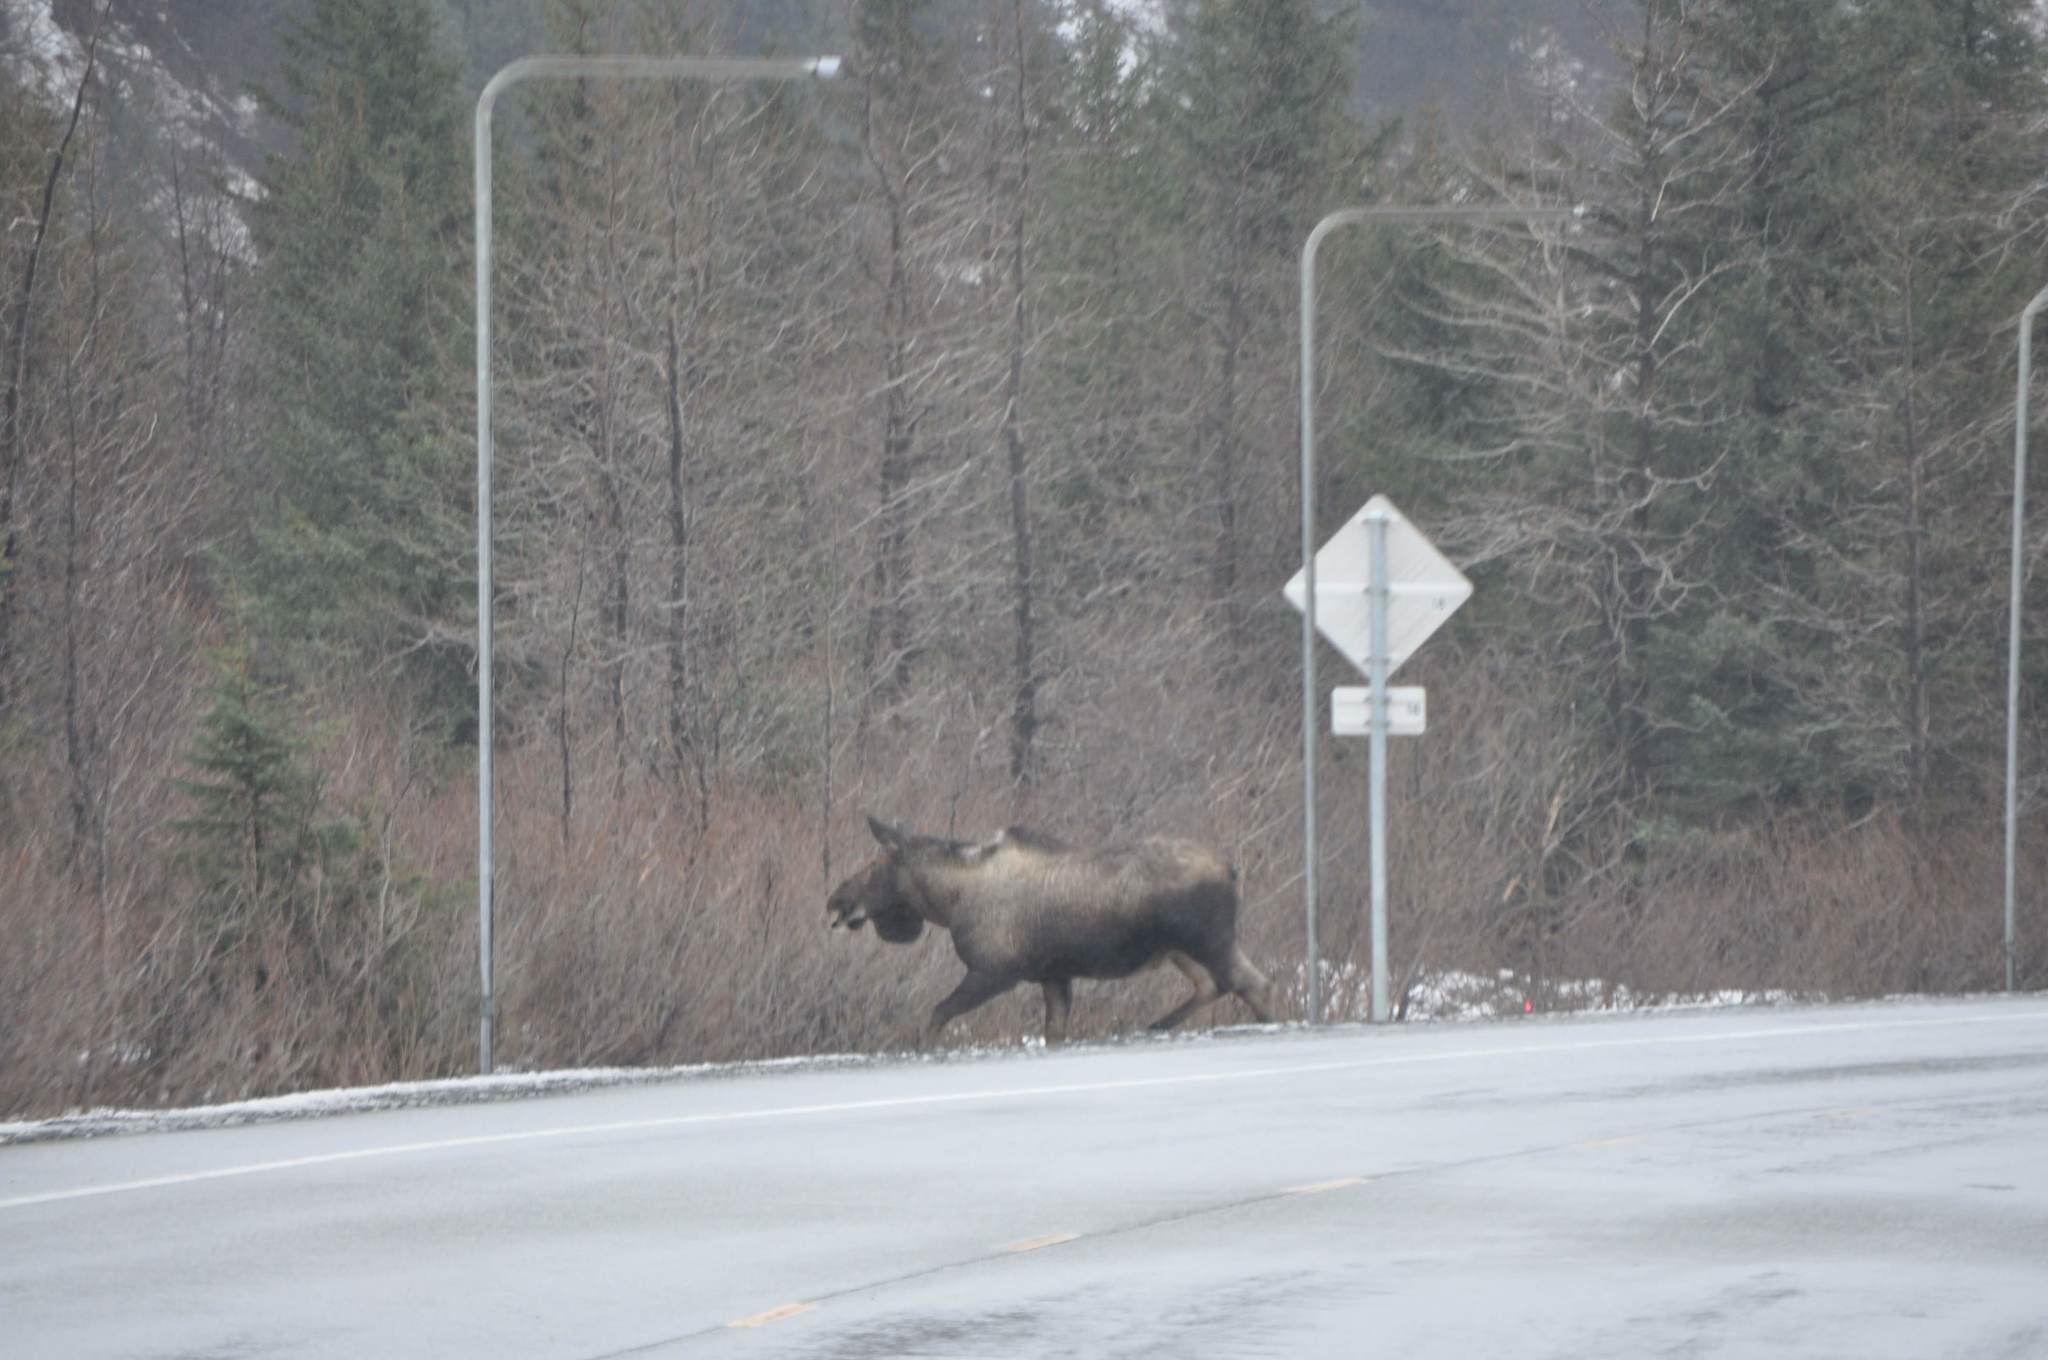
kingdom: Animalia
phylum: Chordata
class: Mammalia
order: Artiodactyla
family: Cervidae
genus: Alces
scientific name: Alces alces
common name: Moose
